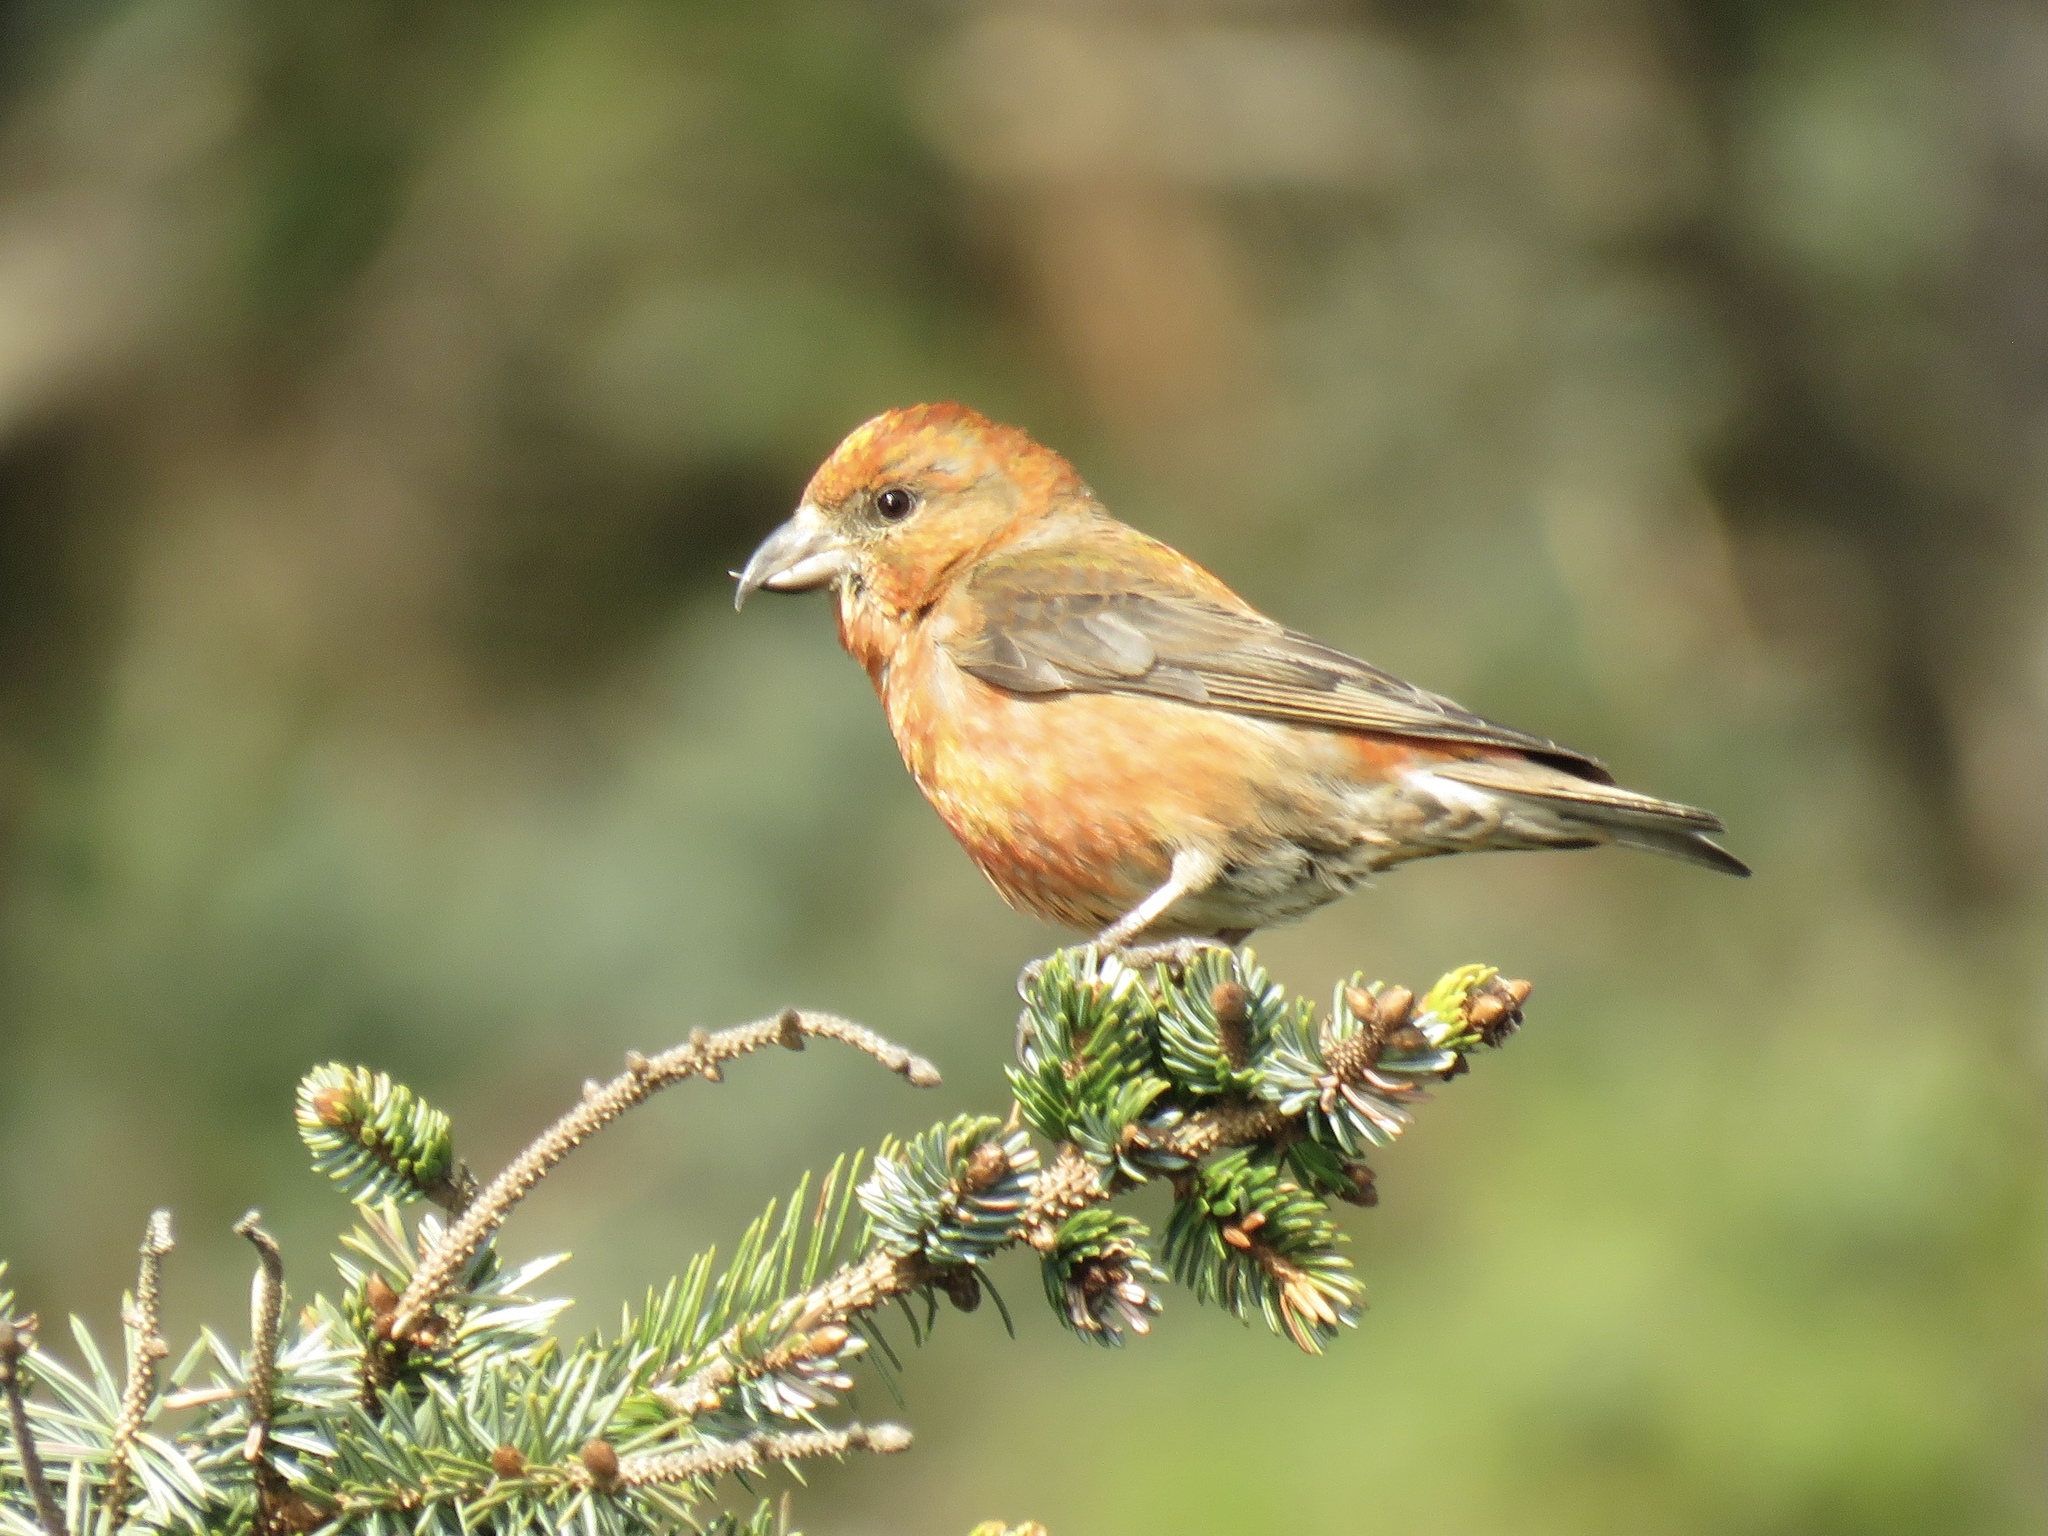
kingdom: Animalia
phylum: Chordata
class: Aves
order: Passeriformes
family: Fringillidae
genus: Loxia
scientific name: Loxia curvirostra
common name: Red crossbill
